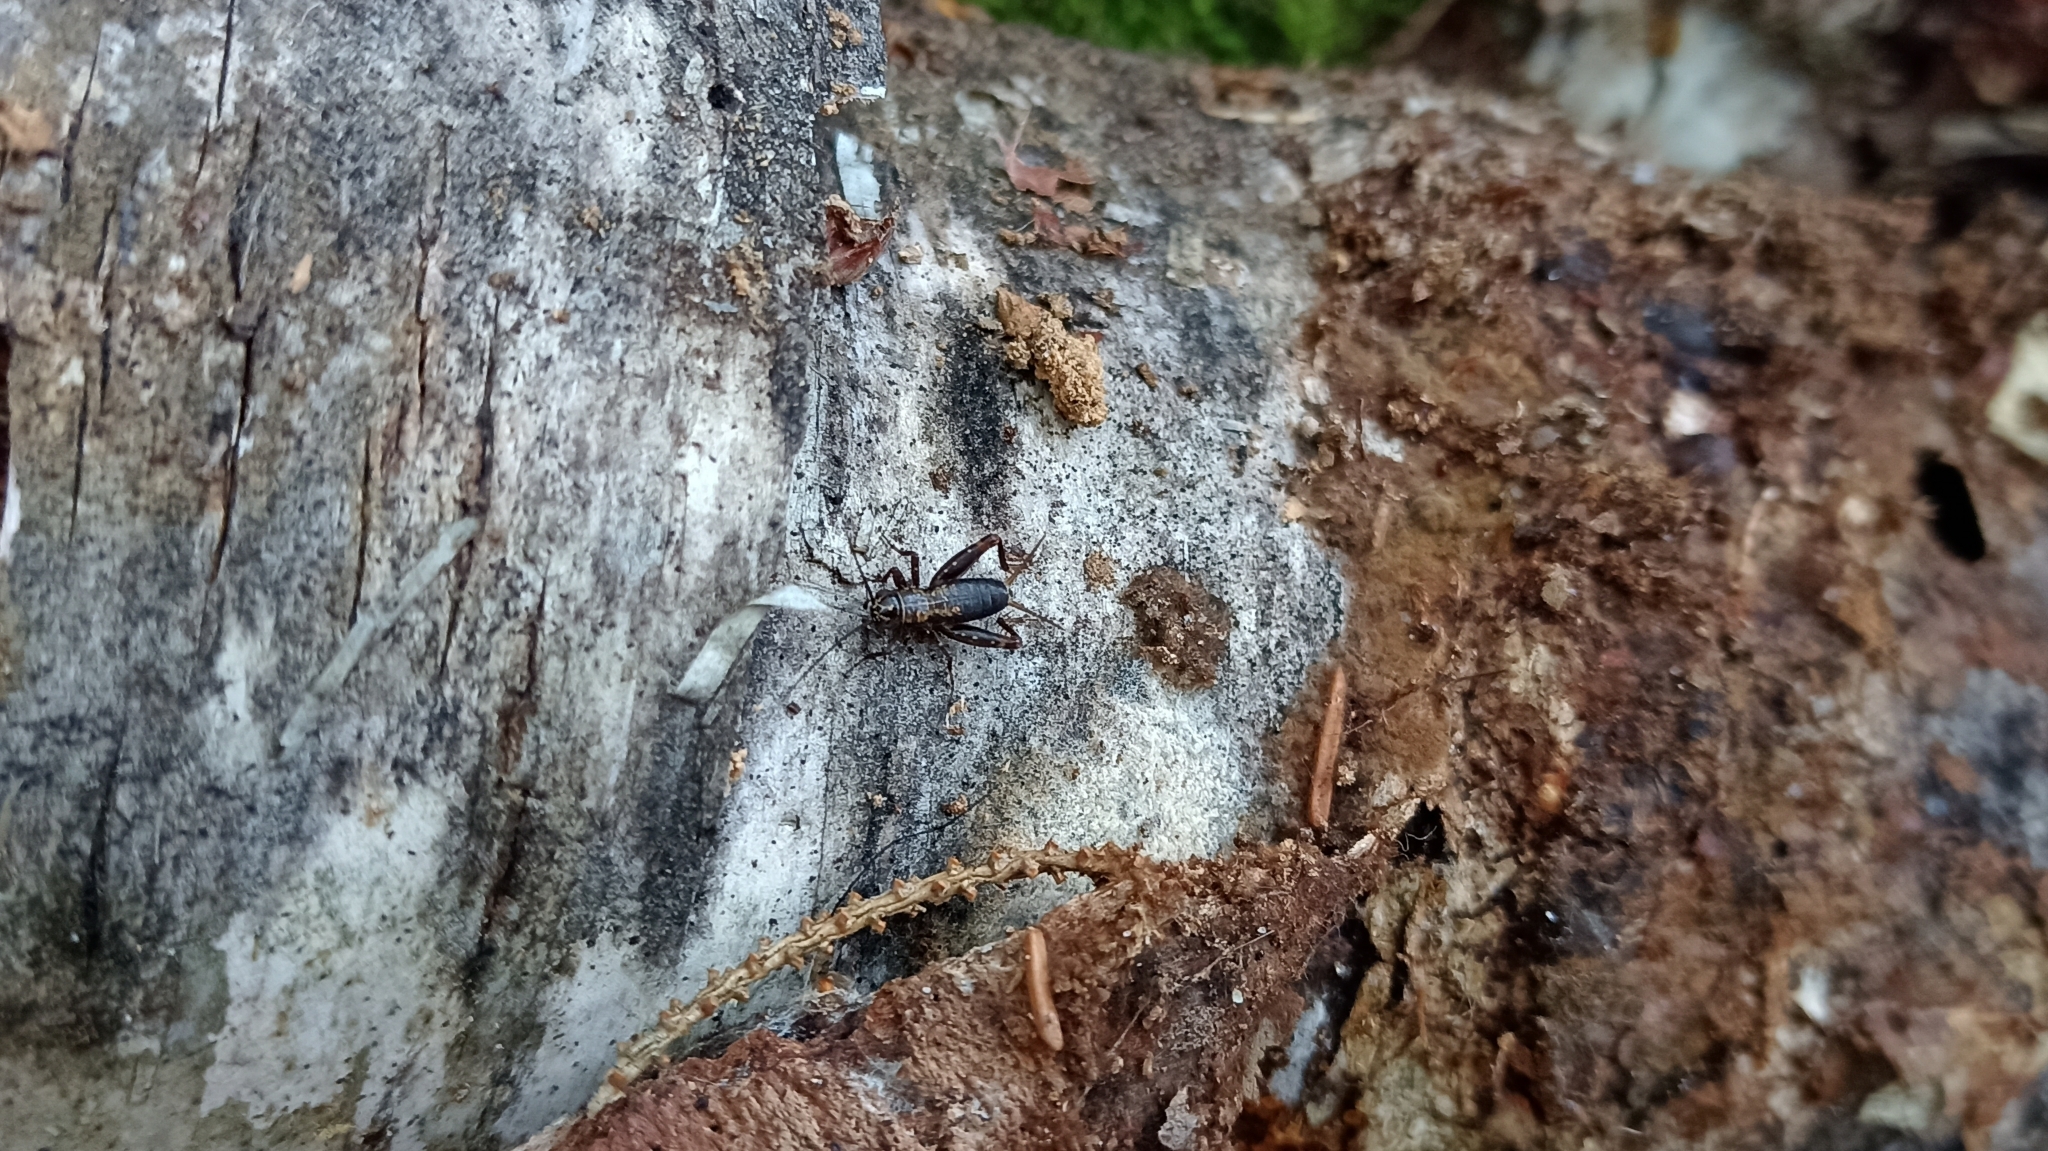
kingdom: Animalia
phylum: Arthropoda
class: Insecta
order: Orthoptera
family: Trigonidiidae
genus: Nemobius
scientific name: Nemobius sylvestris
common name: Wood-cricket
